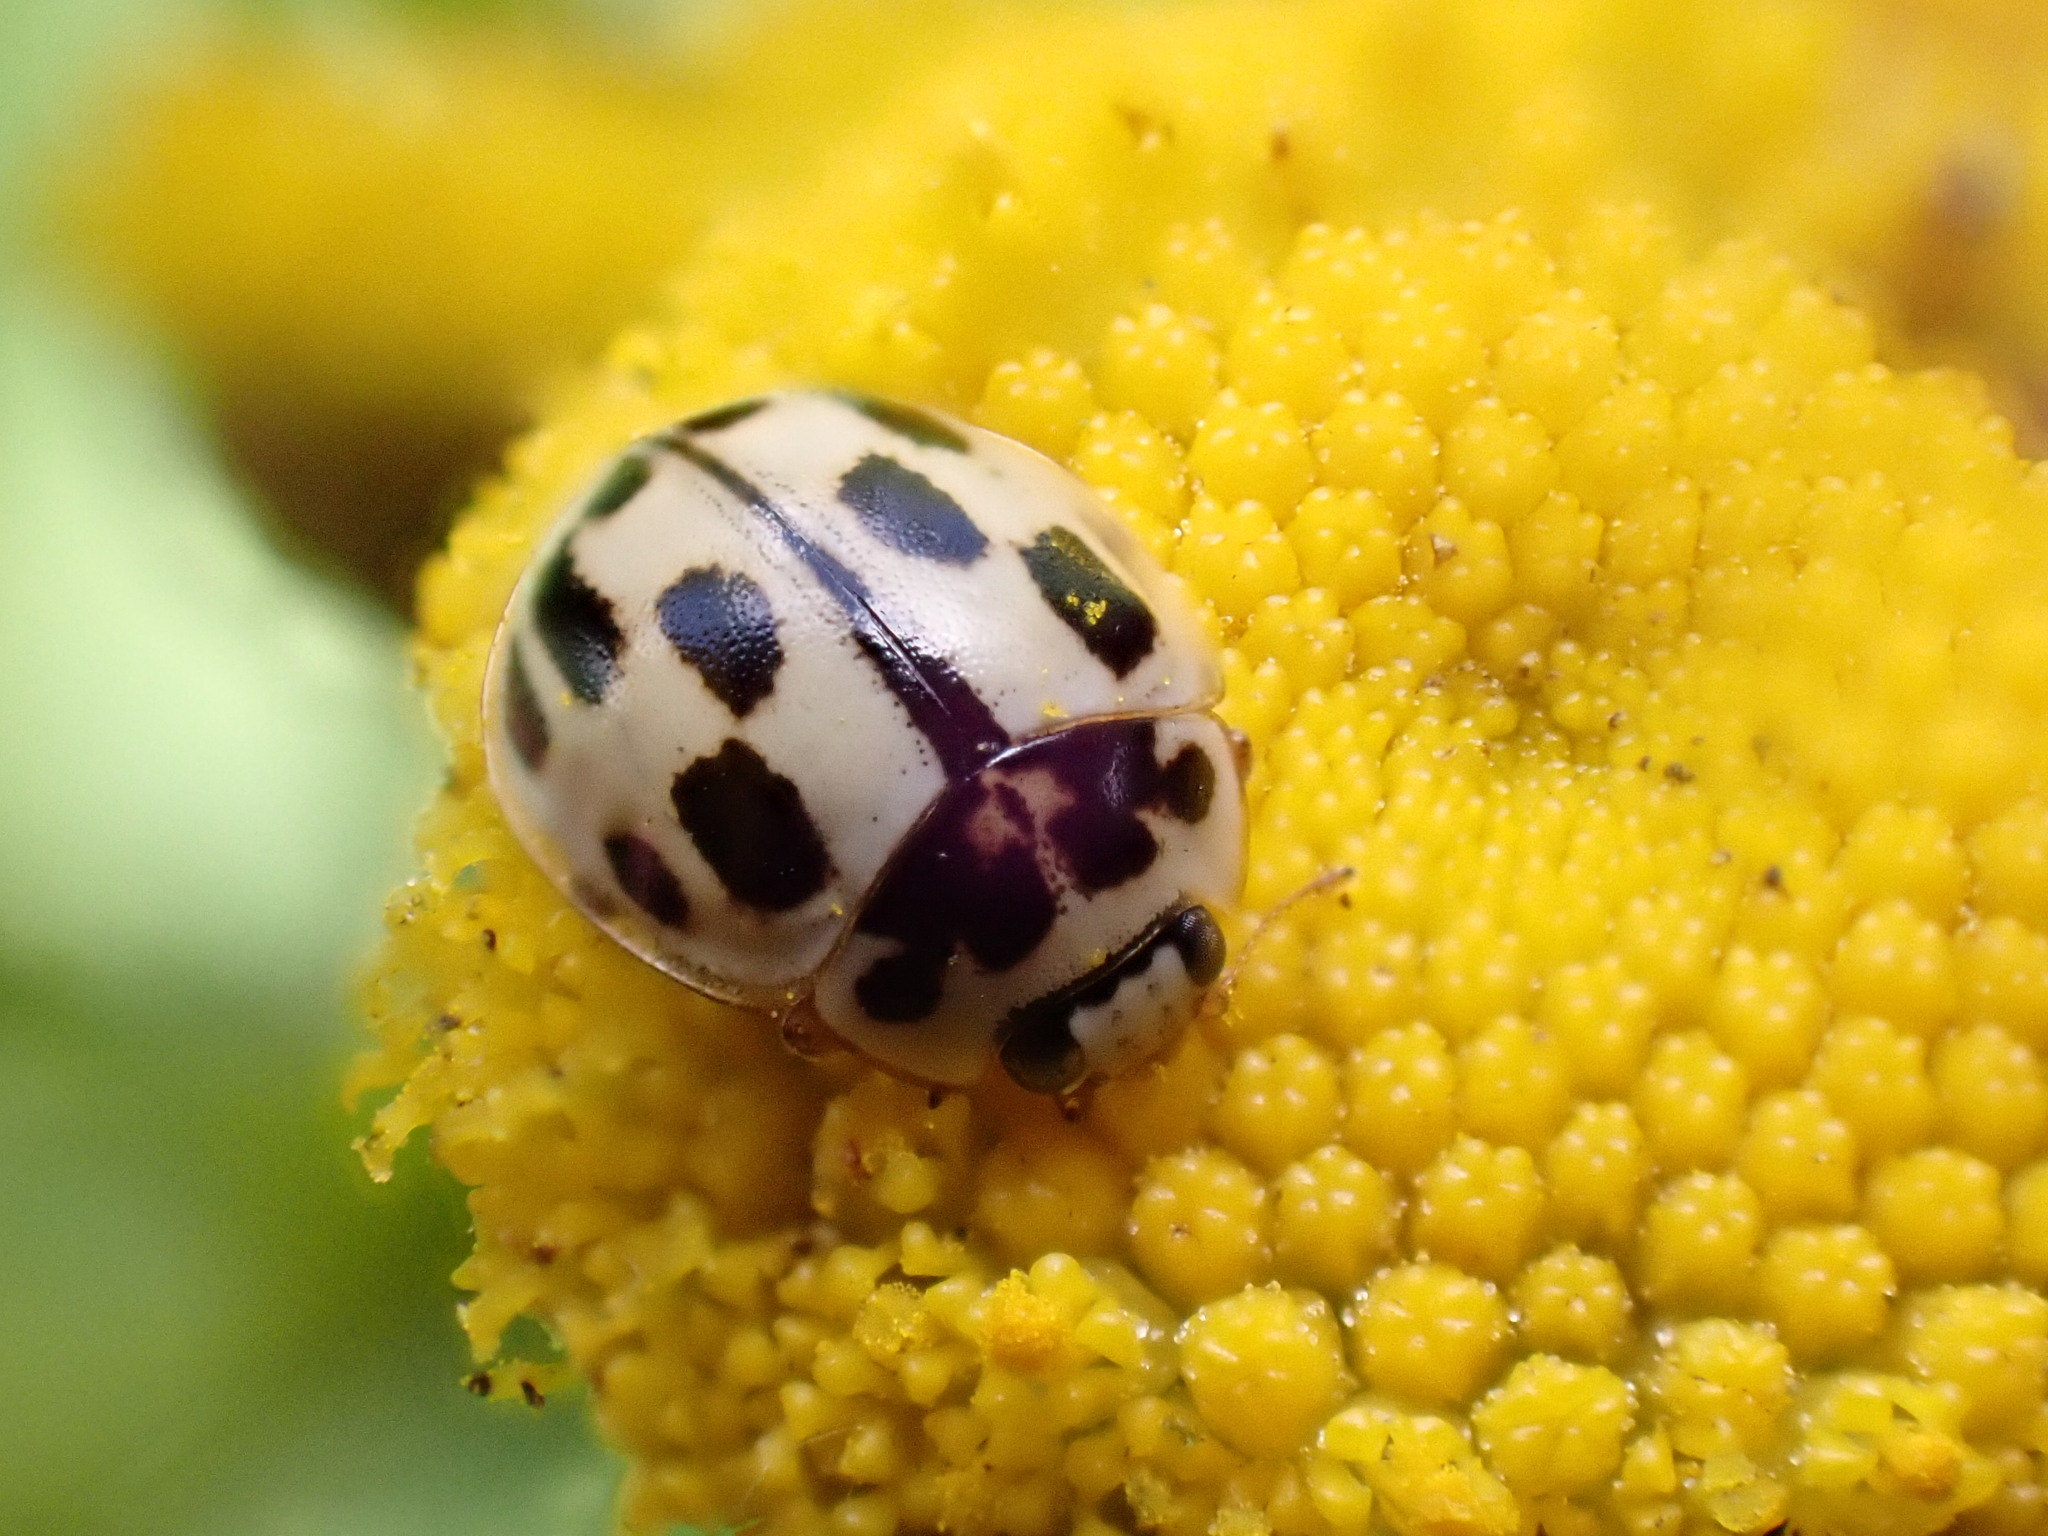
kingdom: Animalia
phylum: Arthropoda
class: Insecta
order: Coleoptera
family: Coccinellidae
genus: Propylaea
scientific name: Propylaea quatuordecimpunctata
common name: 14-spotted ladybird beetle
